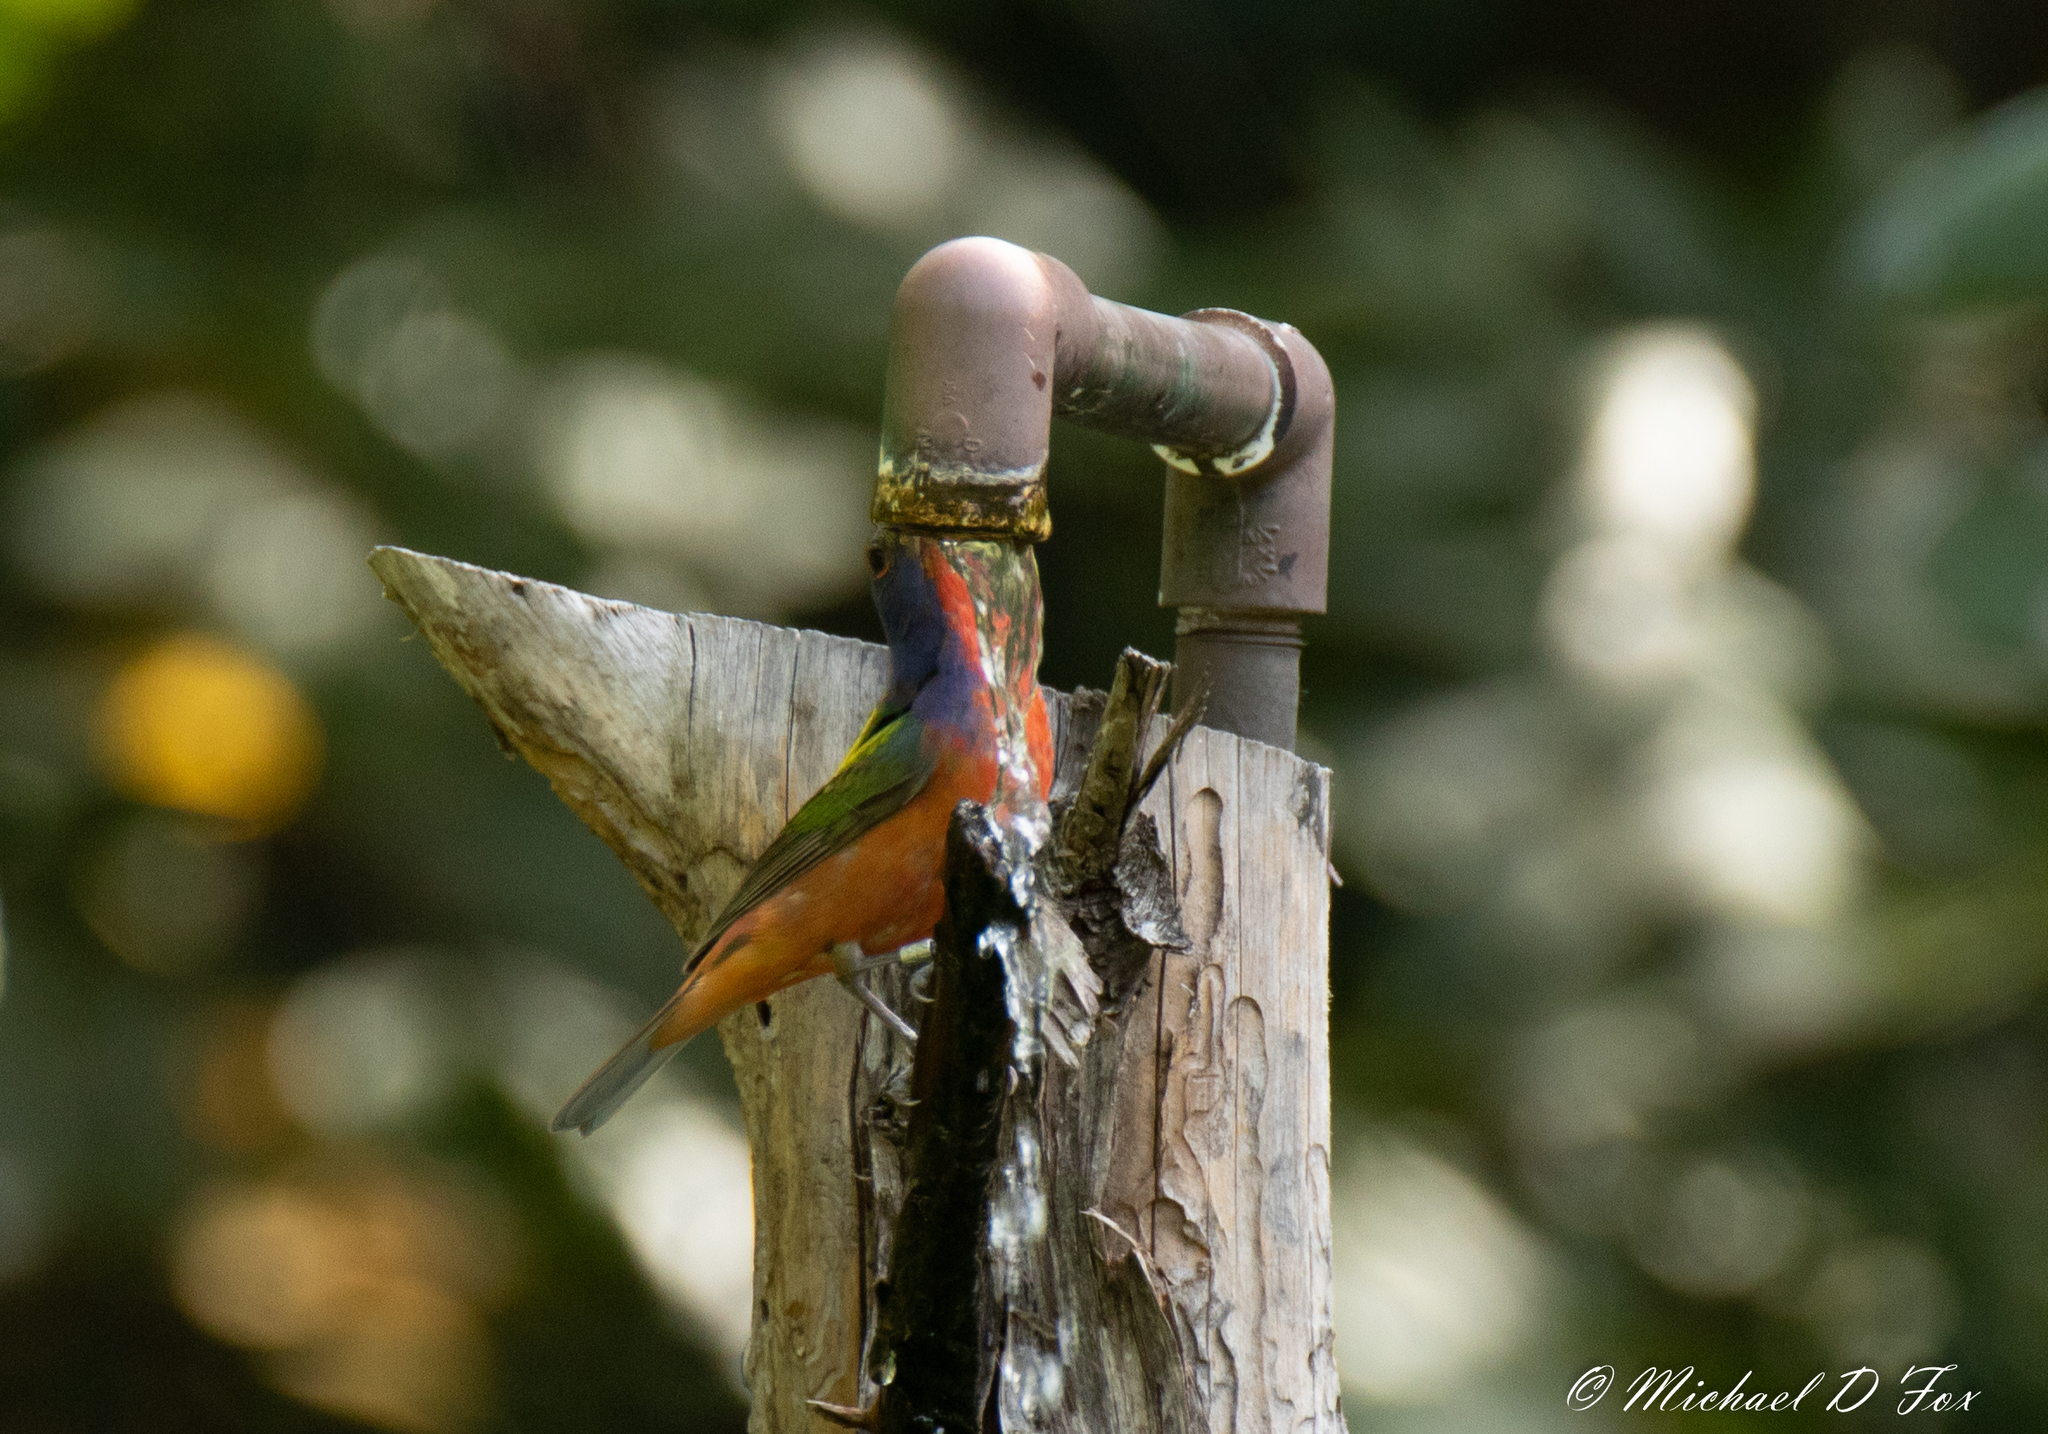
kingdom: Animalia
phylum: Chordata
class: Aves
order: Passeriformes
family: Cardinalidae
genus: Passerina
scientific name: Passerina ciris
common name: Painted bunting
